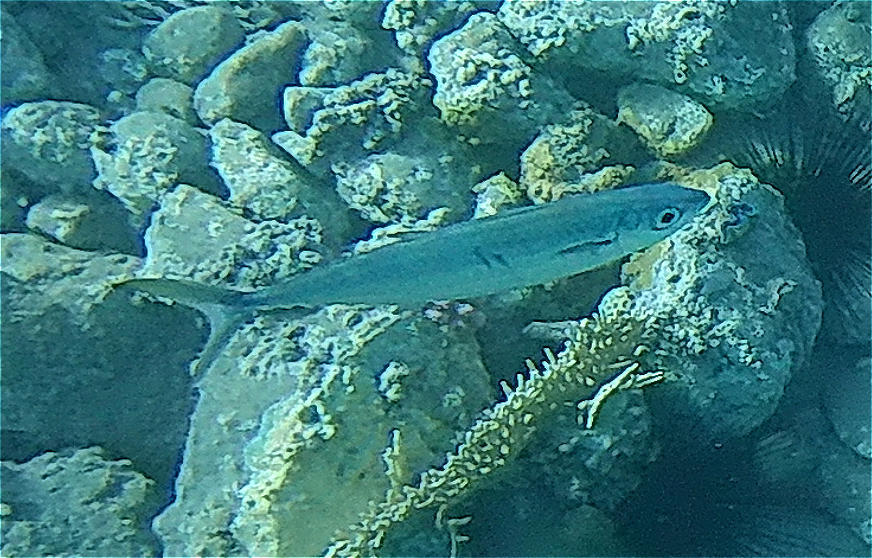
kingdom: Animalia
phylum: Chordata
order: Perciformes
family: Scombridae
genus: Grammatorcynus
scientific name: Grammatorcynus bilineatus
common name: Double-lined mackerel
